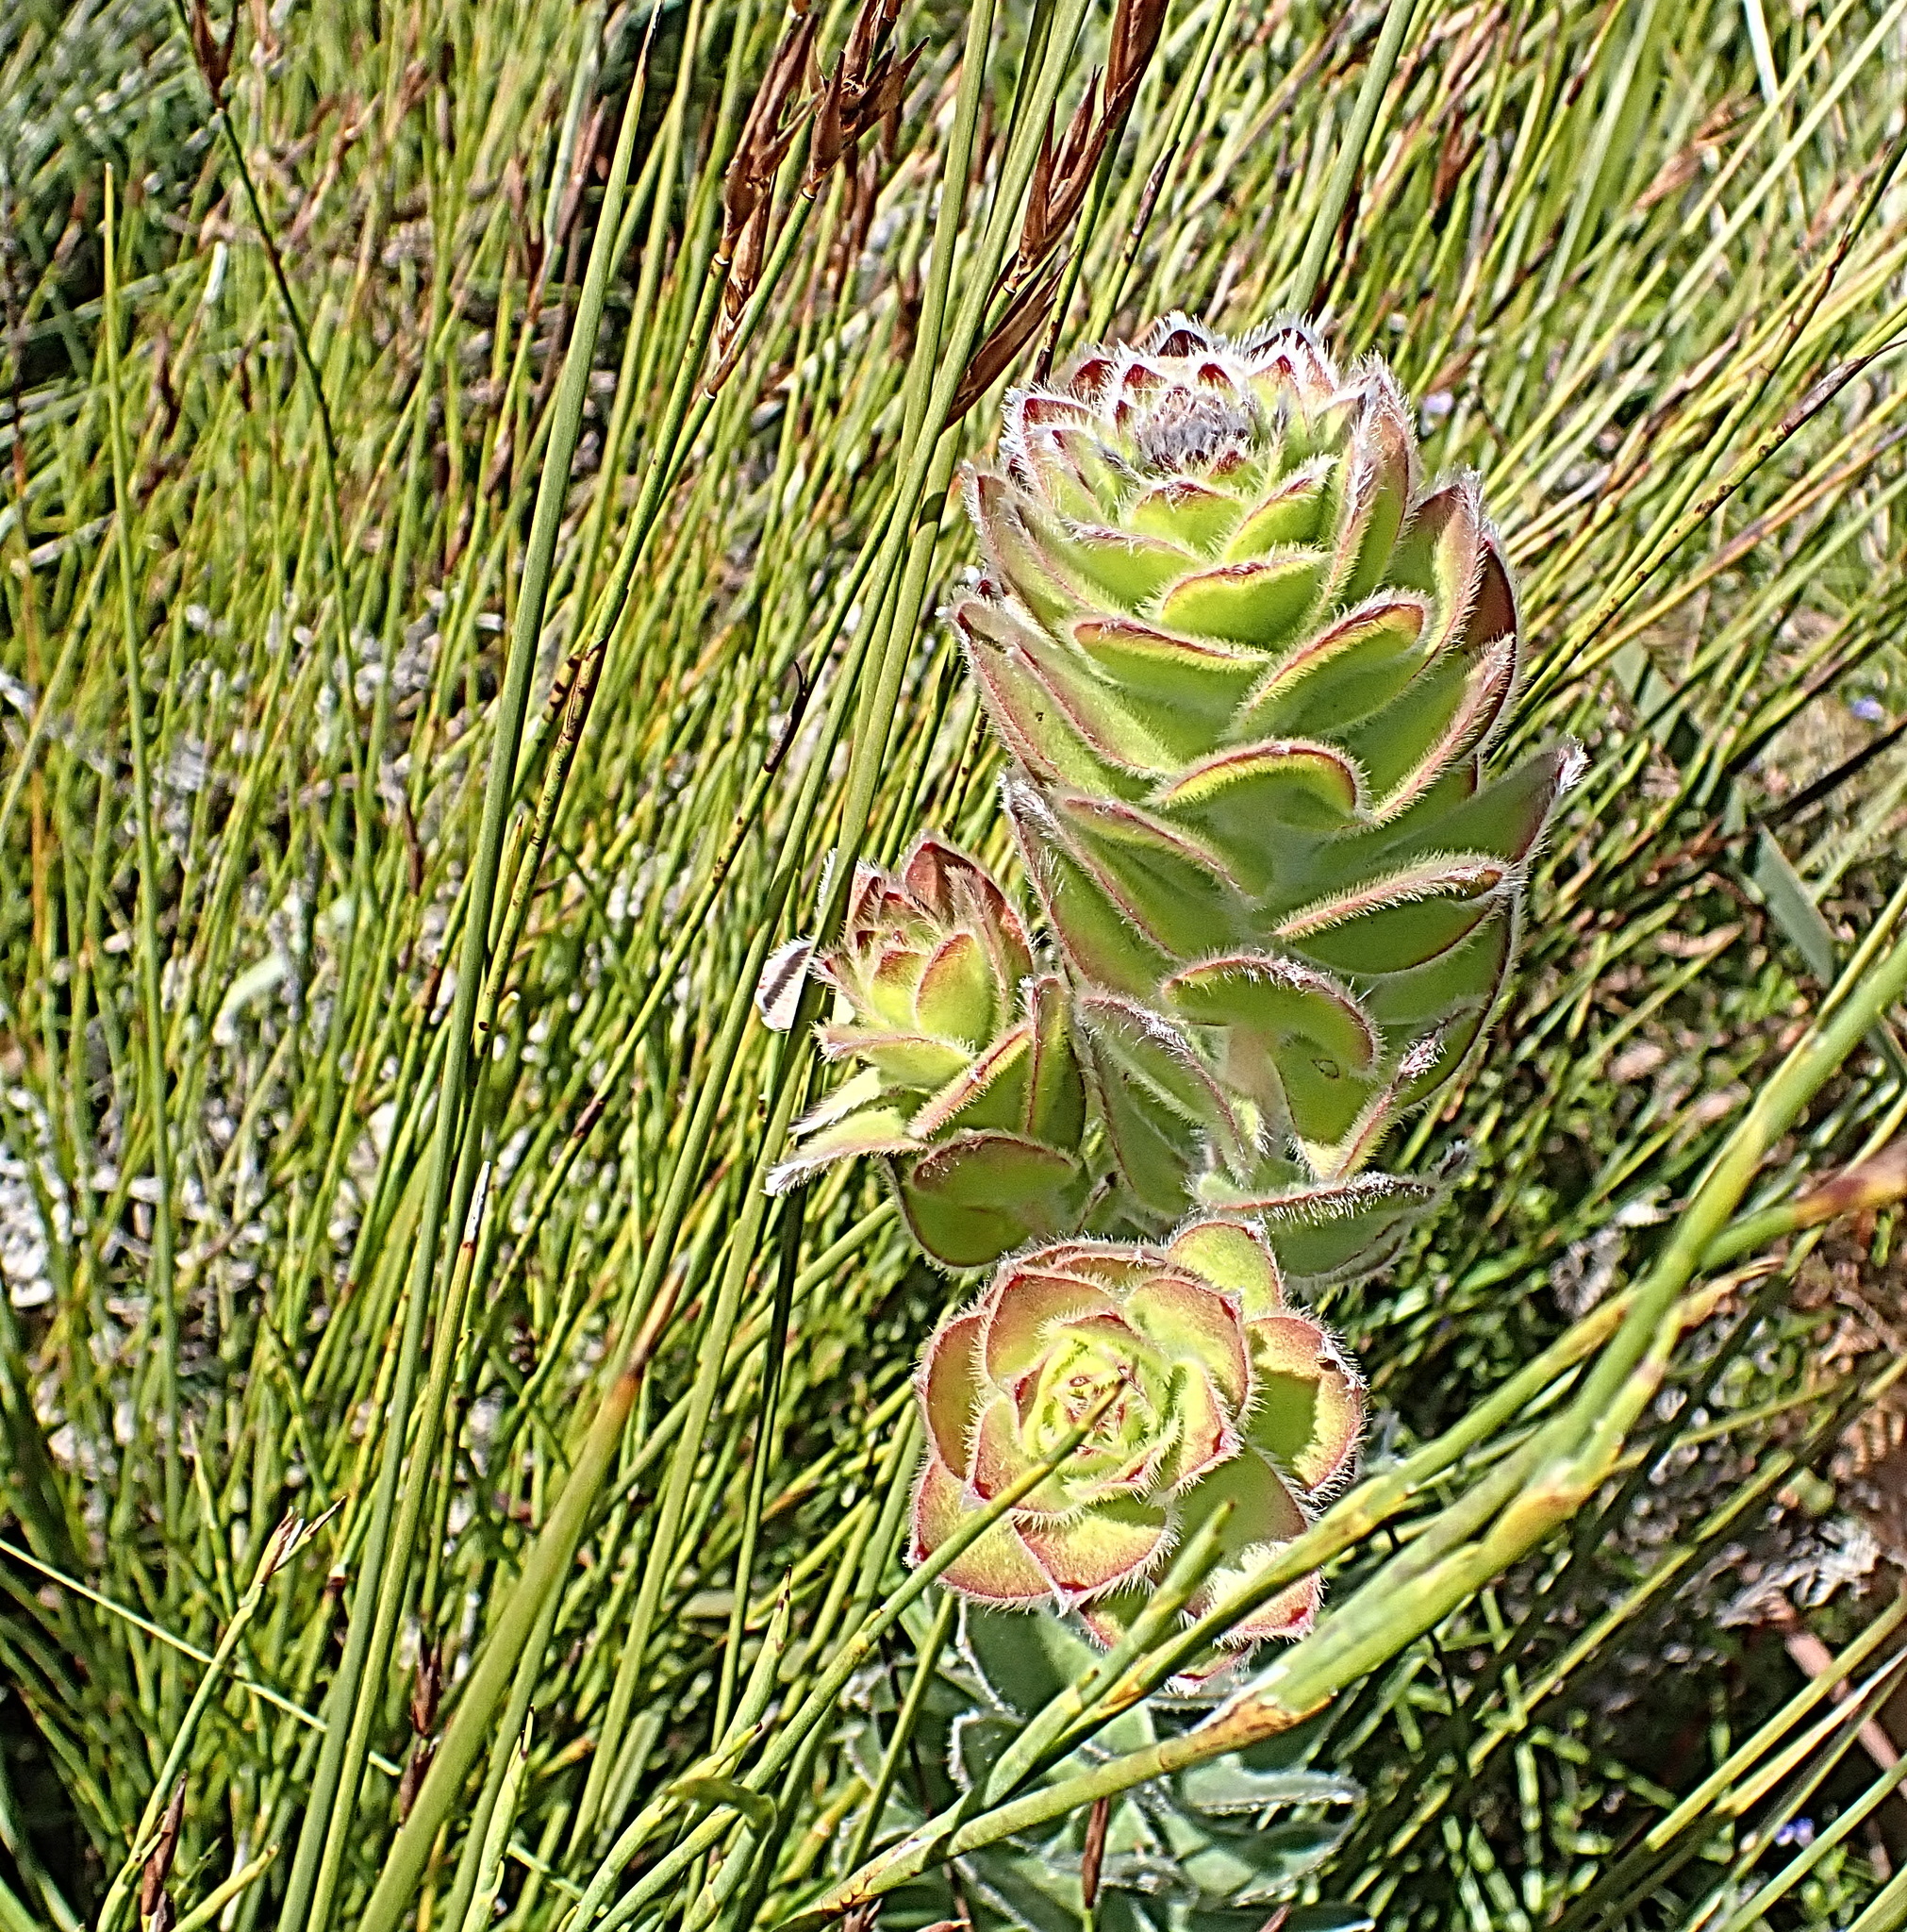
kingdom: Plantae
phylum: Tracheophyta
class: Magnoliopsida
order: Proteales
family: Proteaceae
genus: Mimetes
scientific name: Mimetes pauciflora
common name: Three-flowered pagoda
